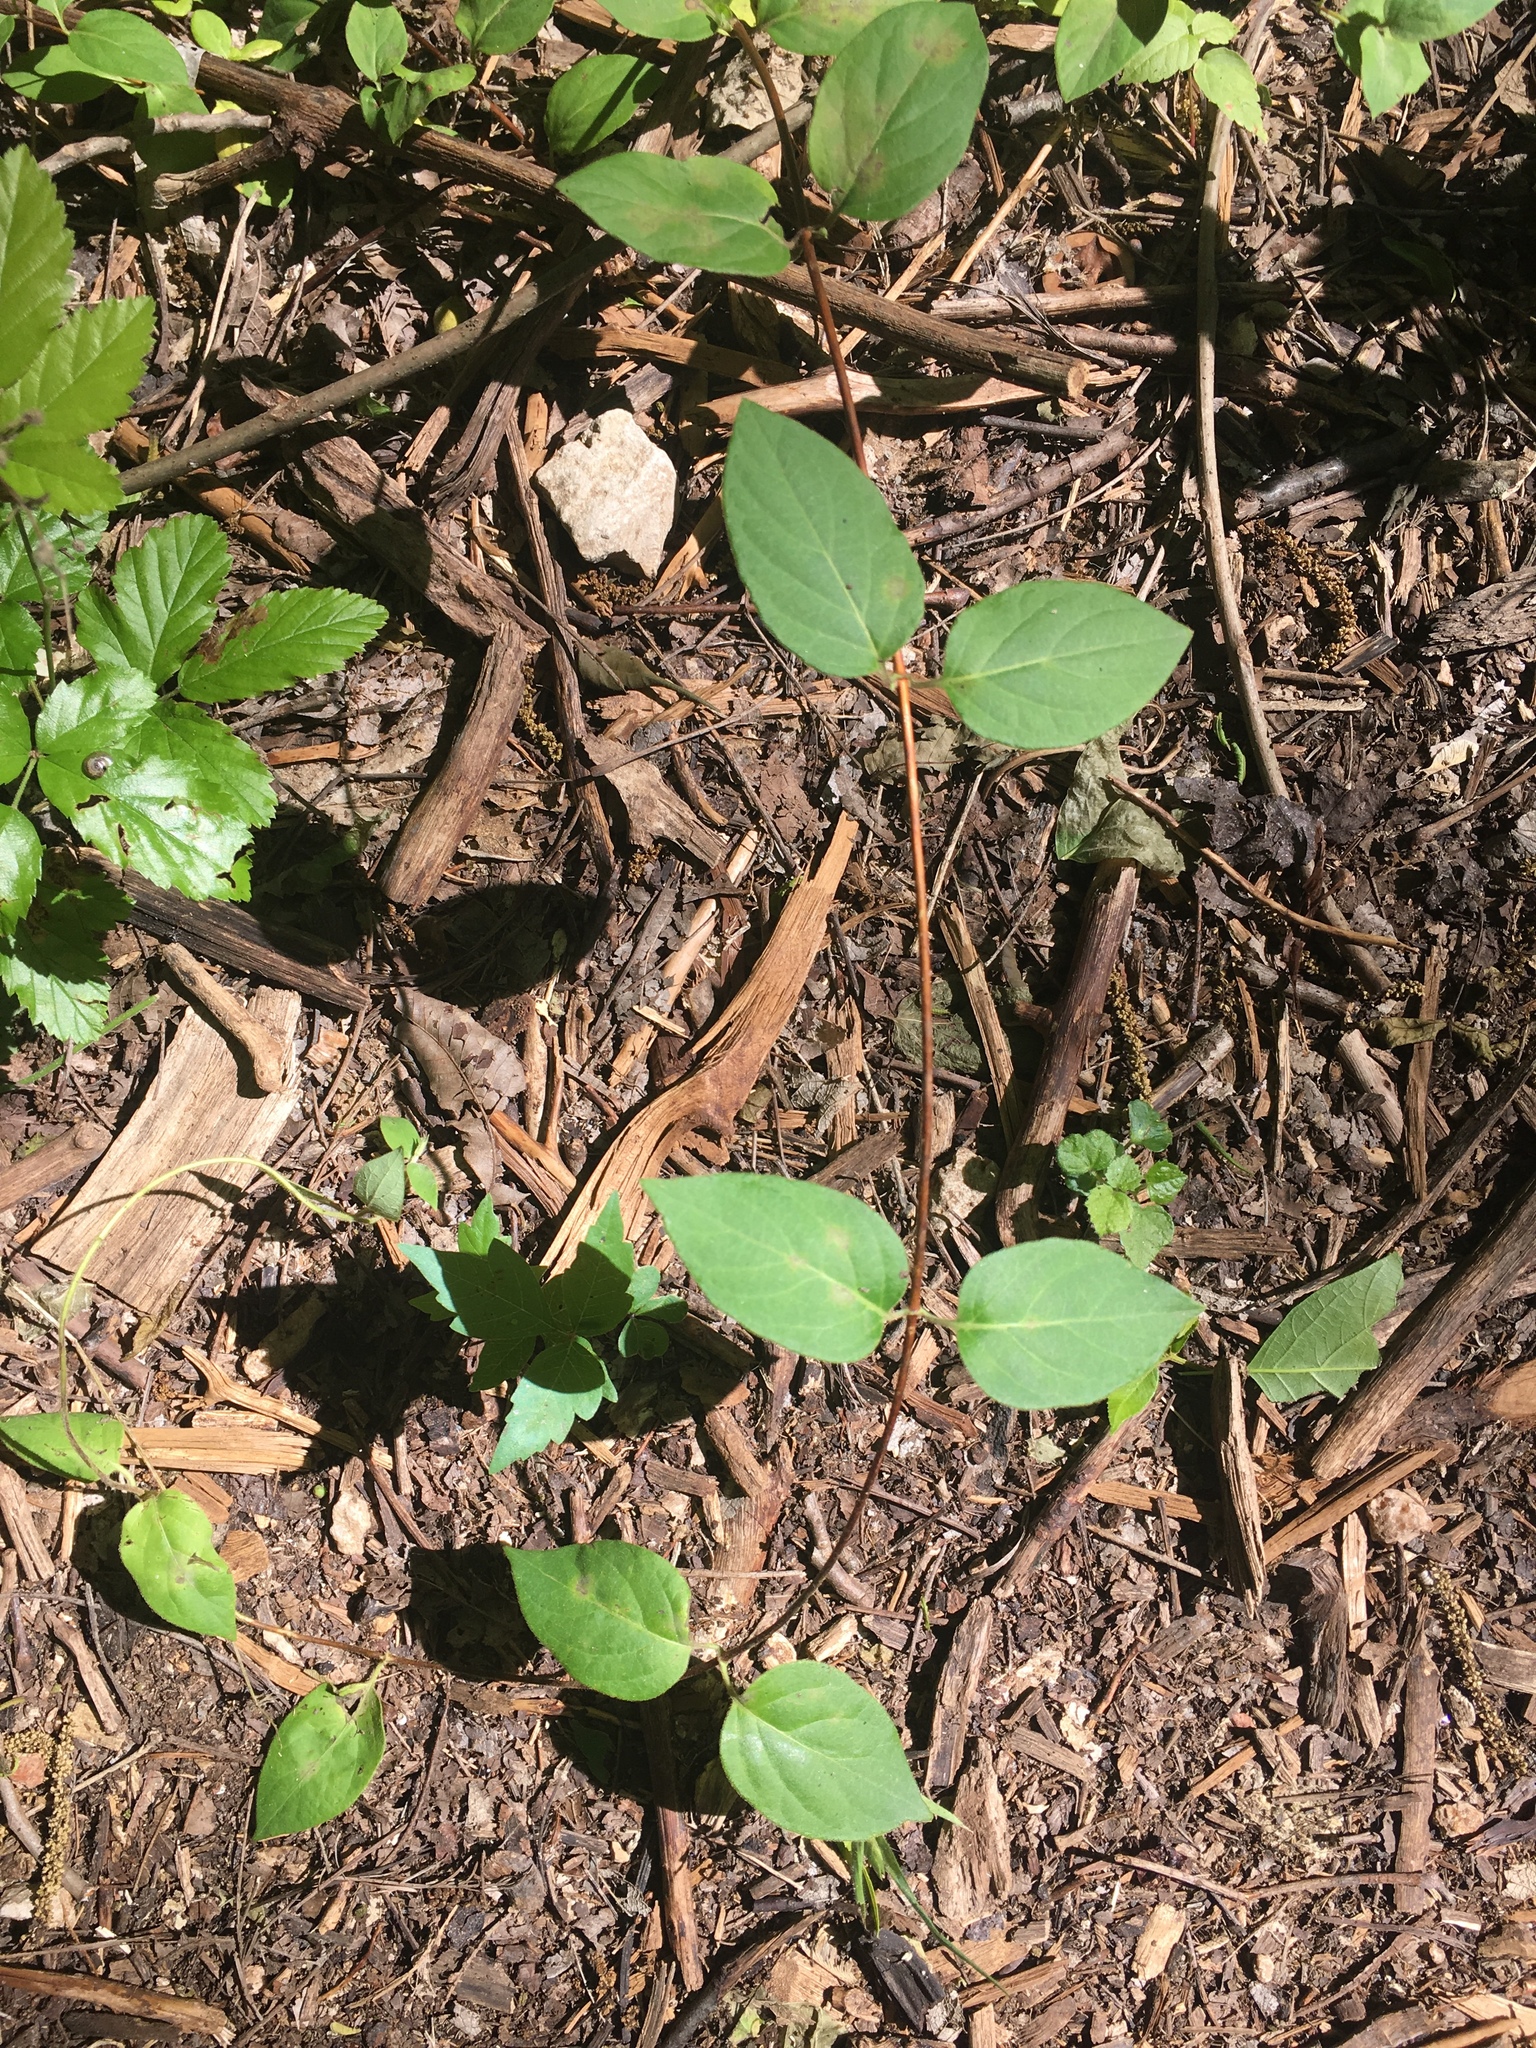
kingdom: Plantae
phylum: Tracheophyta
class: Magnoliopsida
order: Dipsacales
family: Caprifoliaceae
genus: Lonicera
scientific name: Lonicera japonica
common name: Japanese honeysuckle
